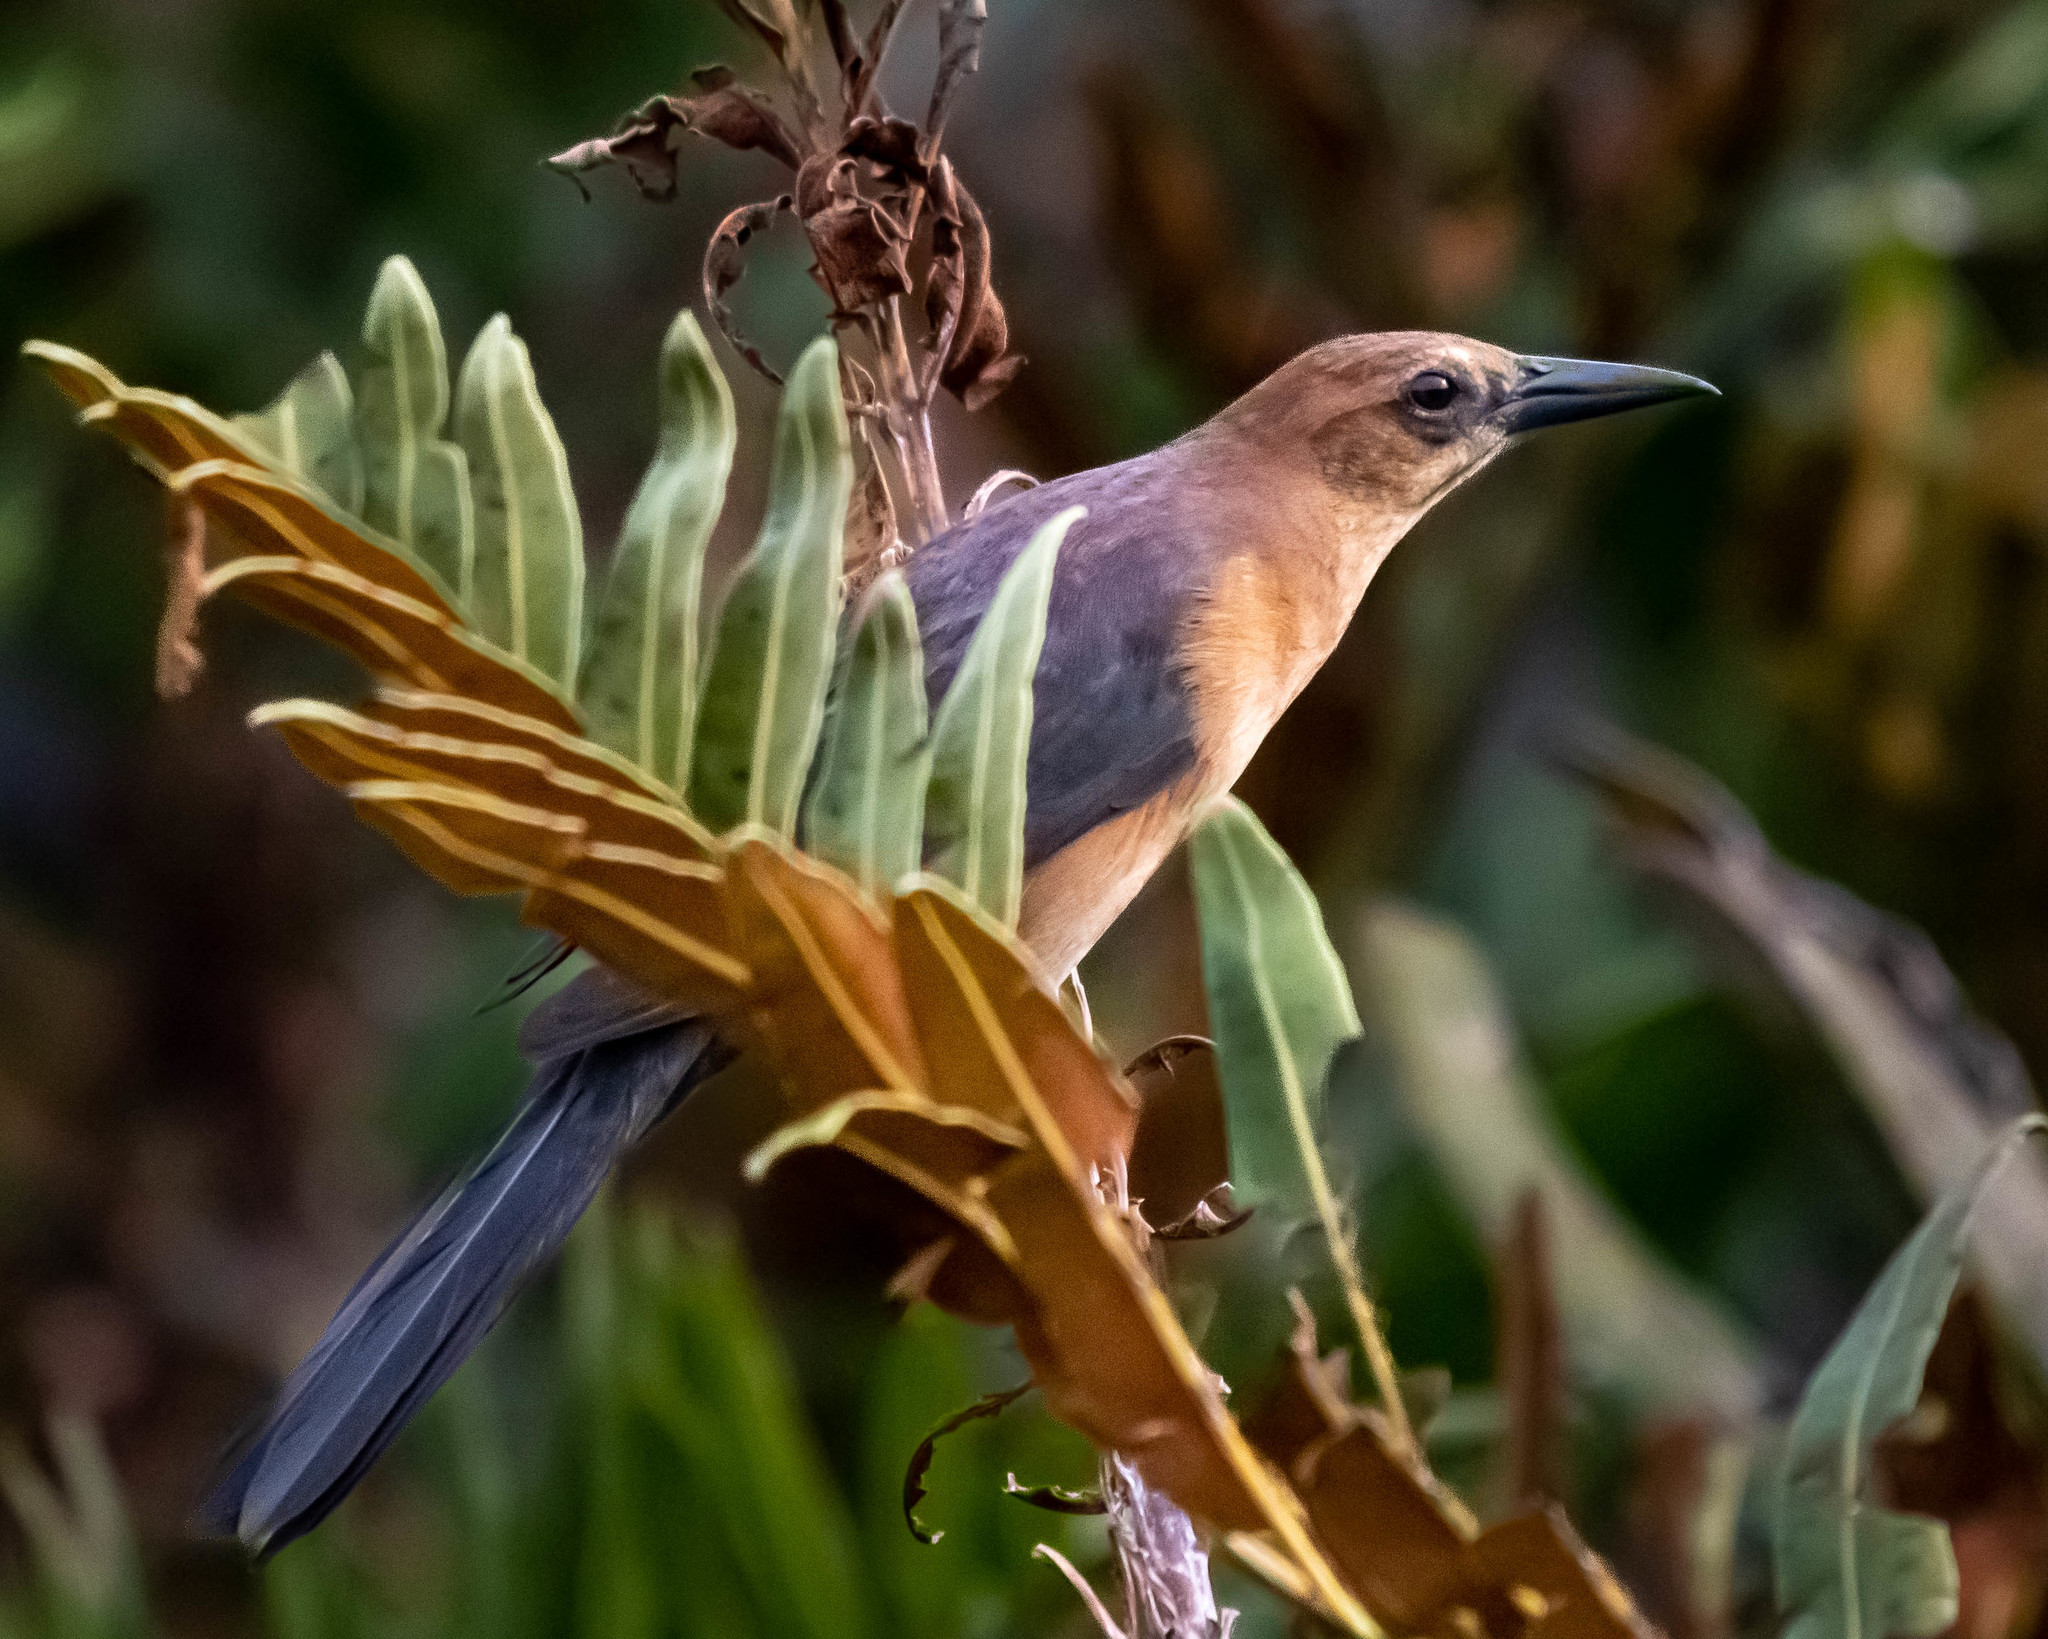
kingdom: Animalia
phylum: Chordata
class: Aves
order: Passeriformes
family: Icteridae
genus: Quiscalus
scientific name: Quiscalus major
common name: Boat-tailed grackle
